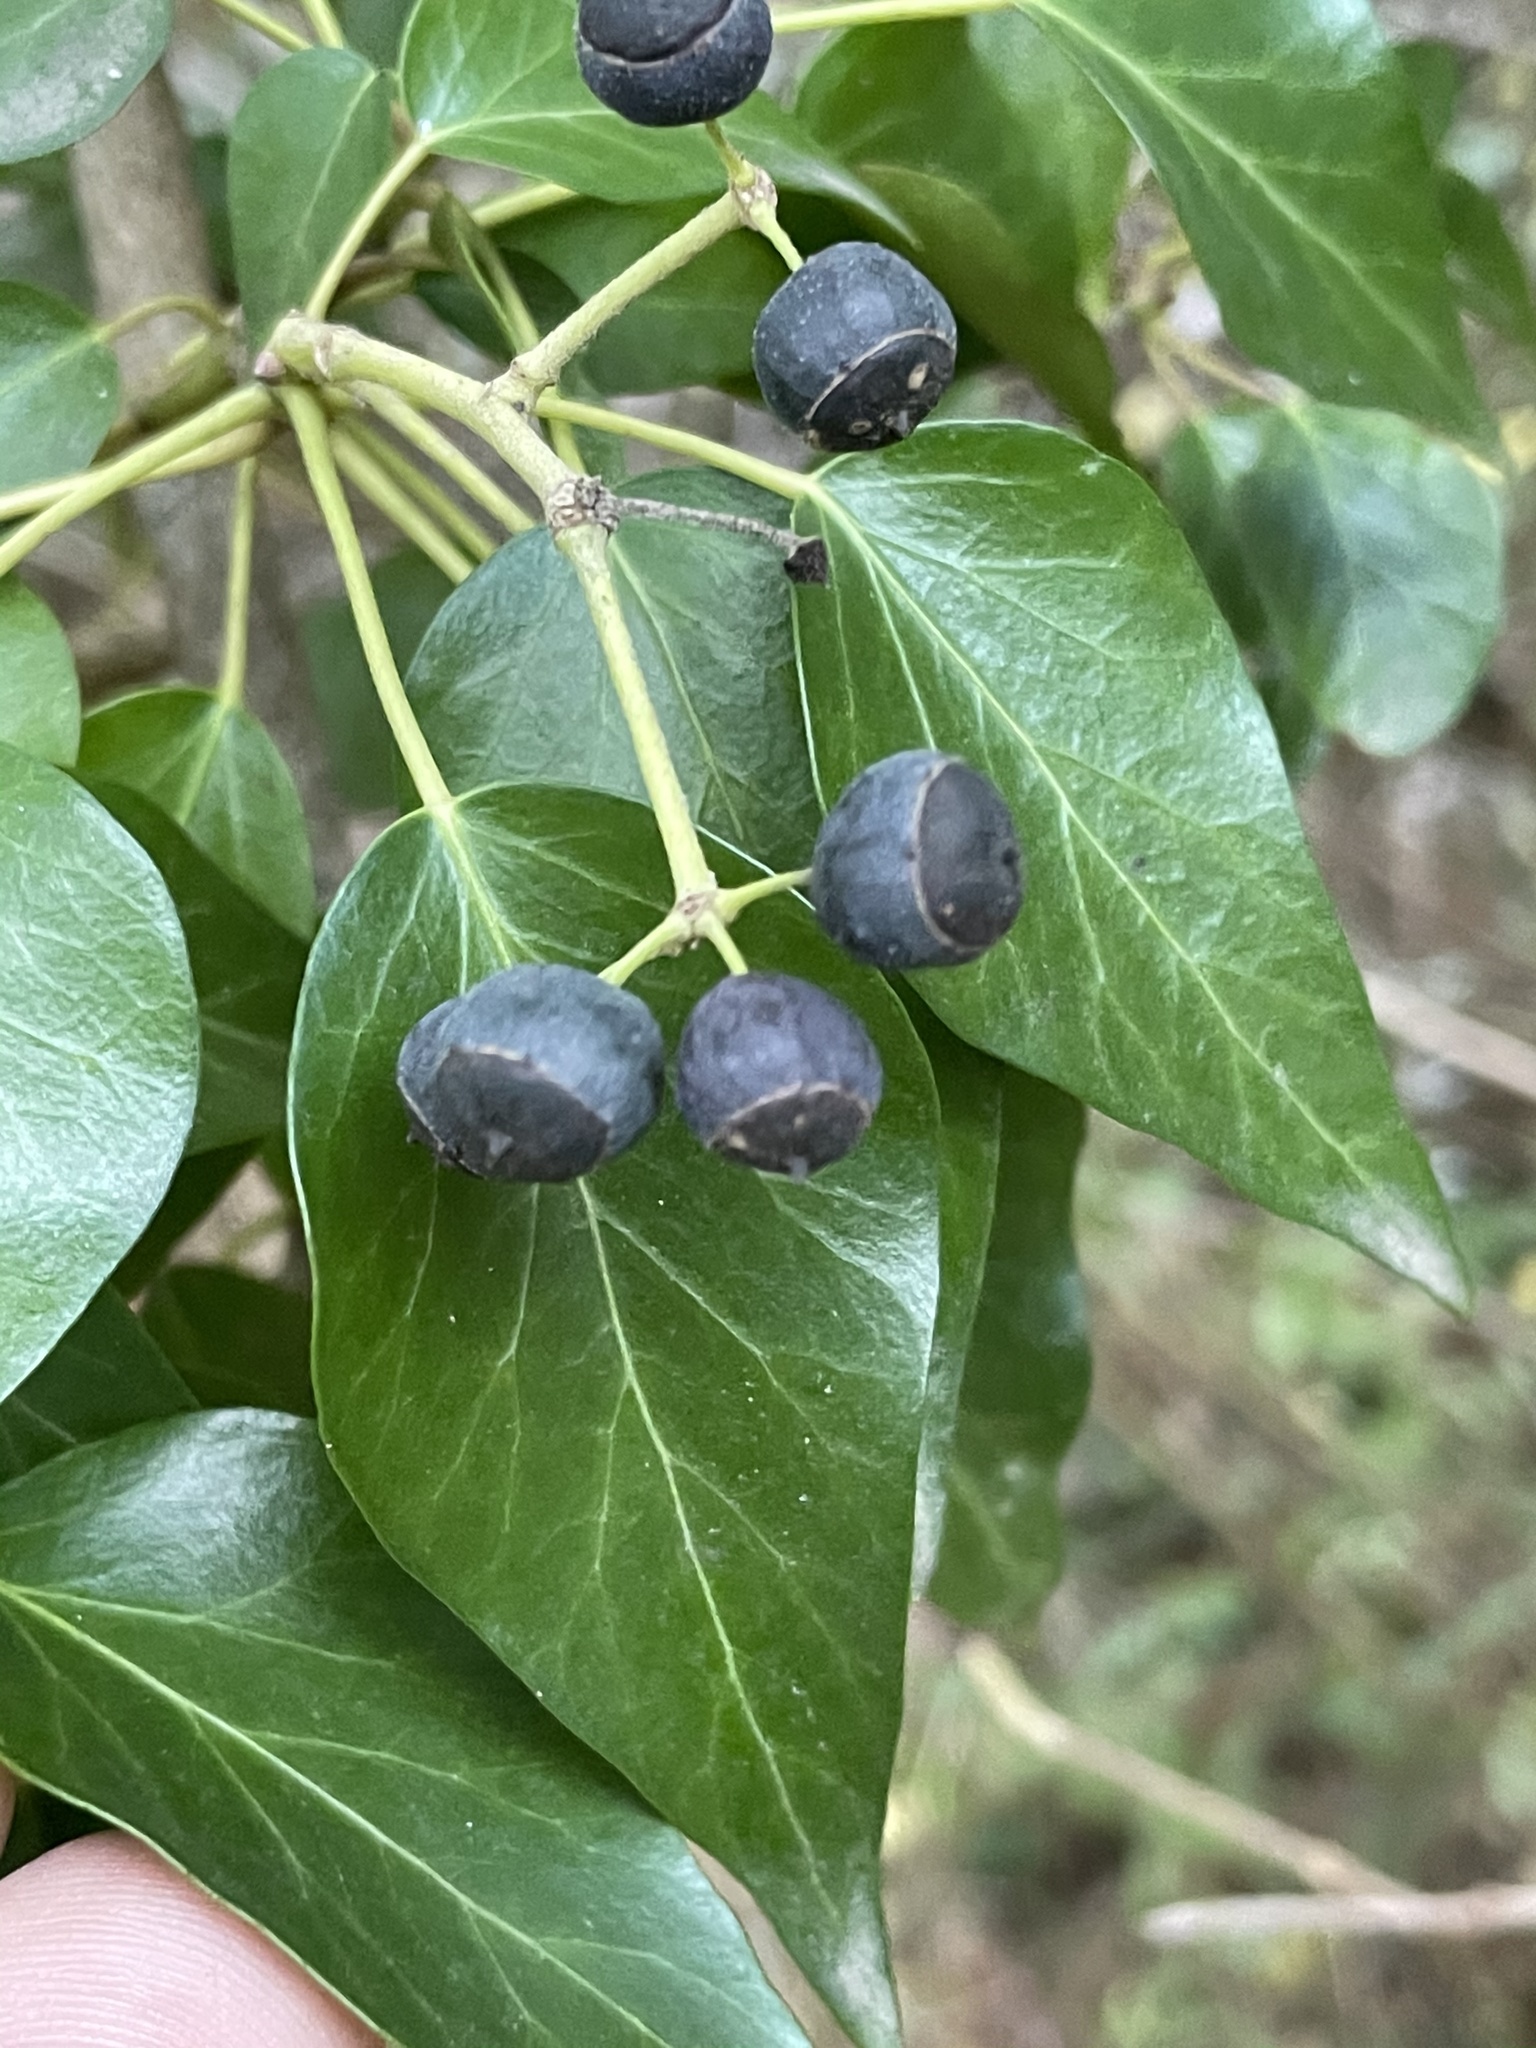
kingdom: Plantae
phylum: Tracheophyta
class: Magnoliopsida
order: Apiales
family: Araliaceae
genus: Hedera
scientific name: Hedera helix
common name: Ivy
